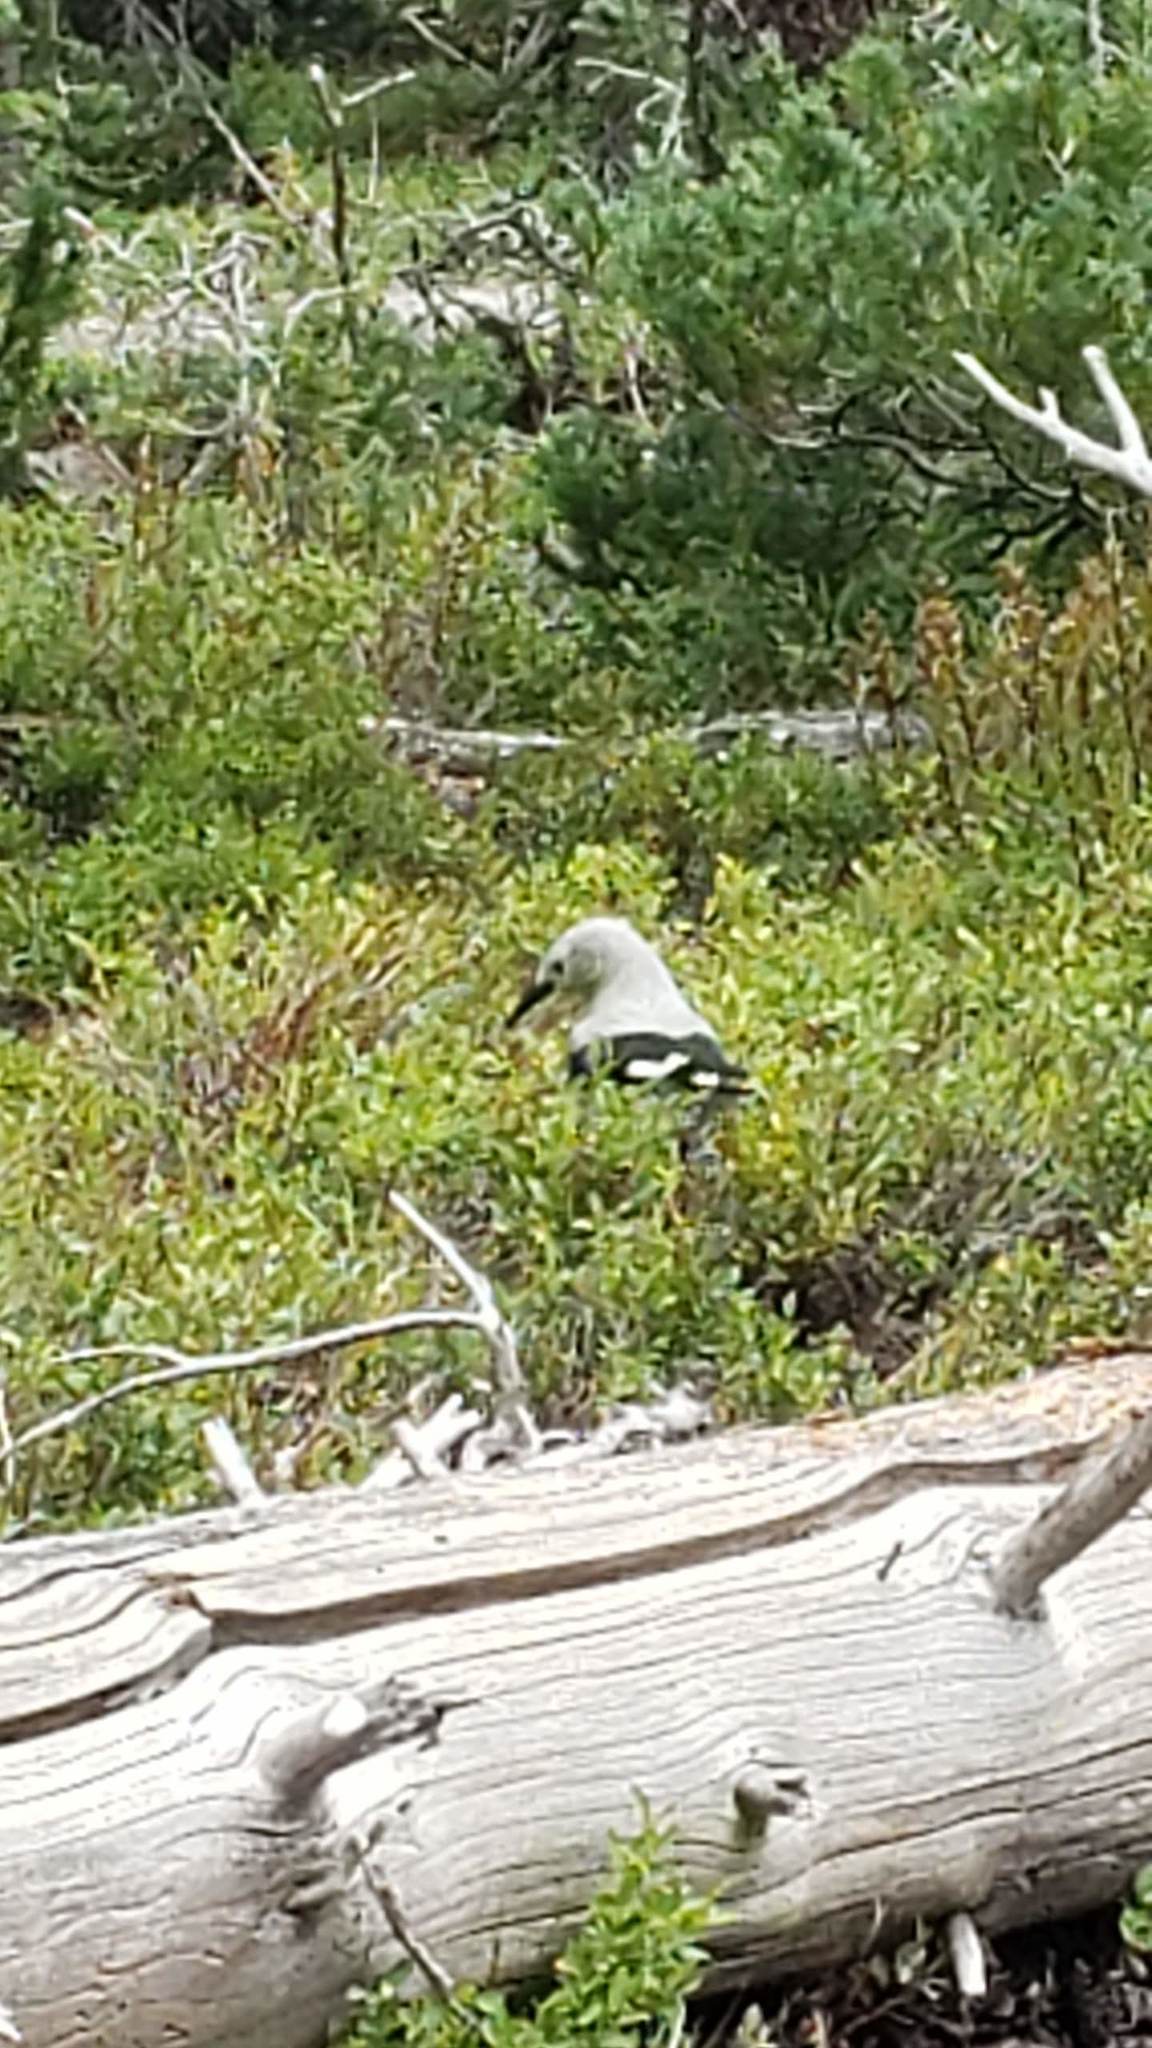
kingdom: Animalia
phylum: Chordata
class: Aves
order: Passeriformes
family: Corvidae
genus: Nucifraga
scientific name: Nucifraga columbiana
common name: Clark's nutcracker
